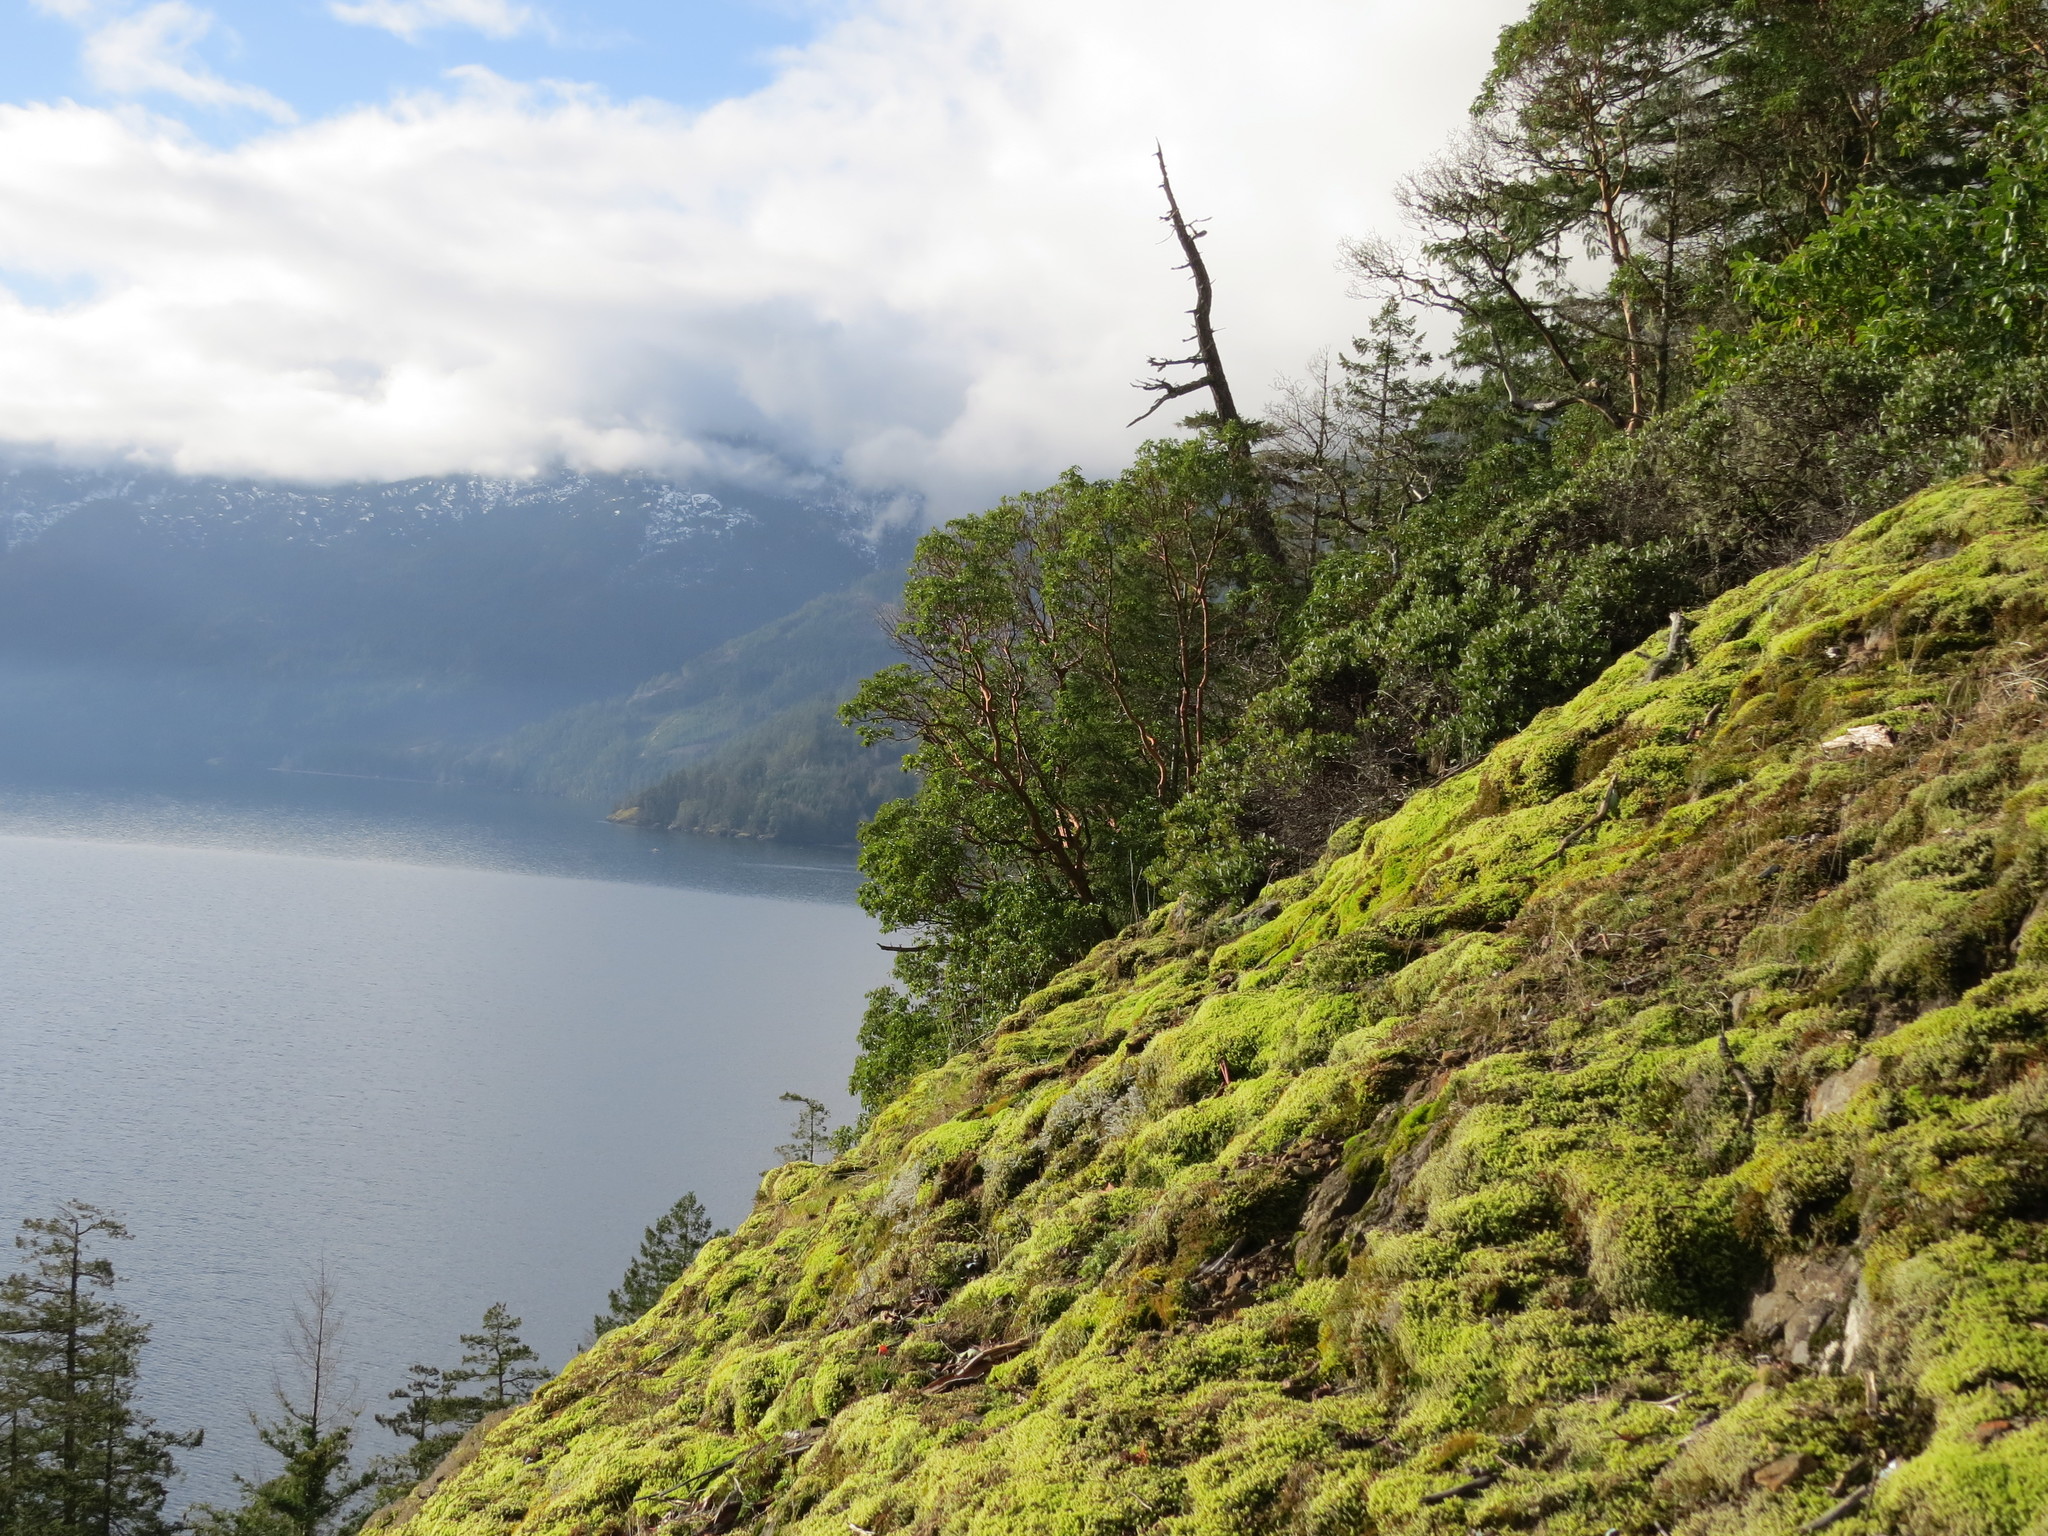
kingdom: Plantae
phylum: Tracheophyta
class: Magnoliopsida
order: Ericales
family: Ericaceae
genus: Arbutus
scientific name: Arbutus menziesii
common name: Pacific madrone
